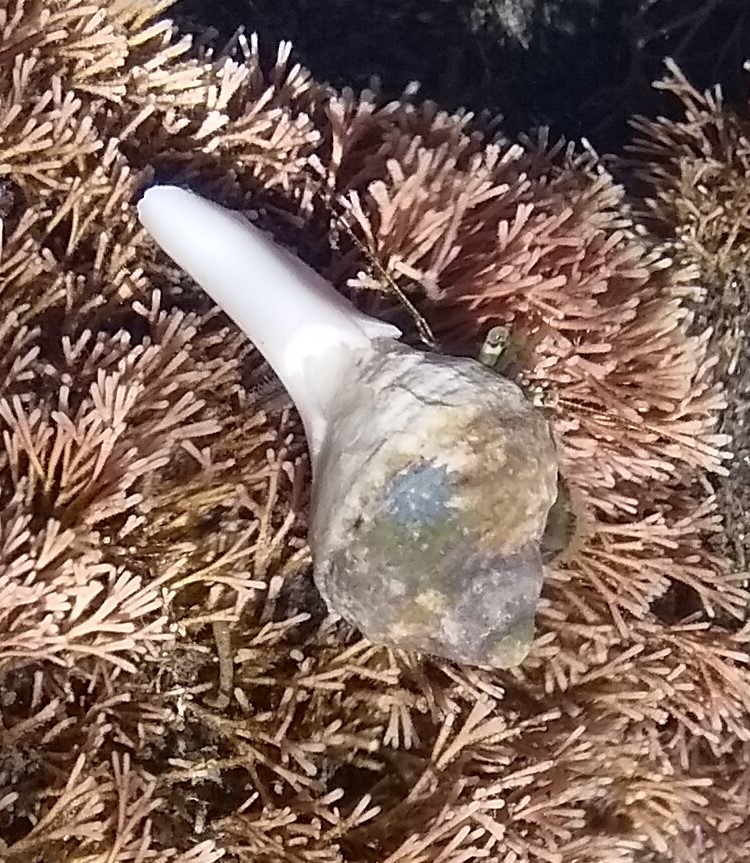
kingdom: Animalia
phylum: Mollusca
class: Gastropoda
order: Neogastropoda
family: Muricidae
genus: Dicathais
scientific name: Dicathais orbita
